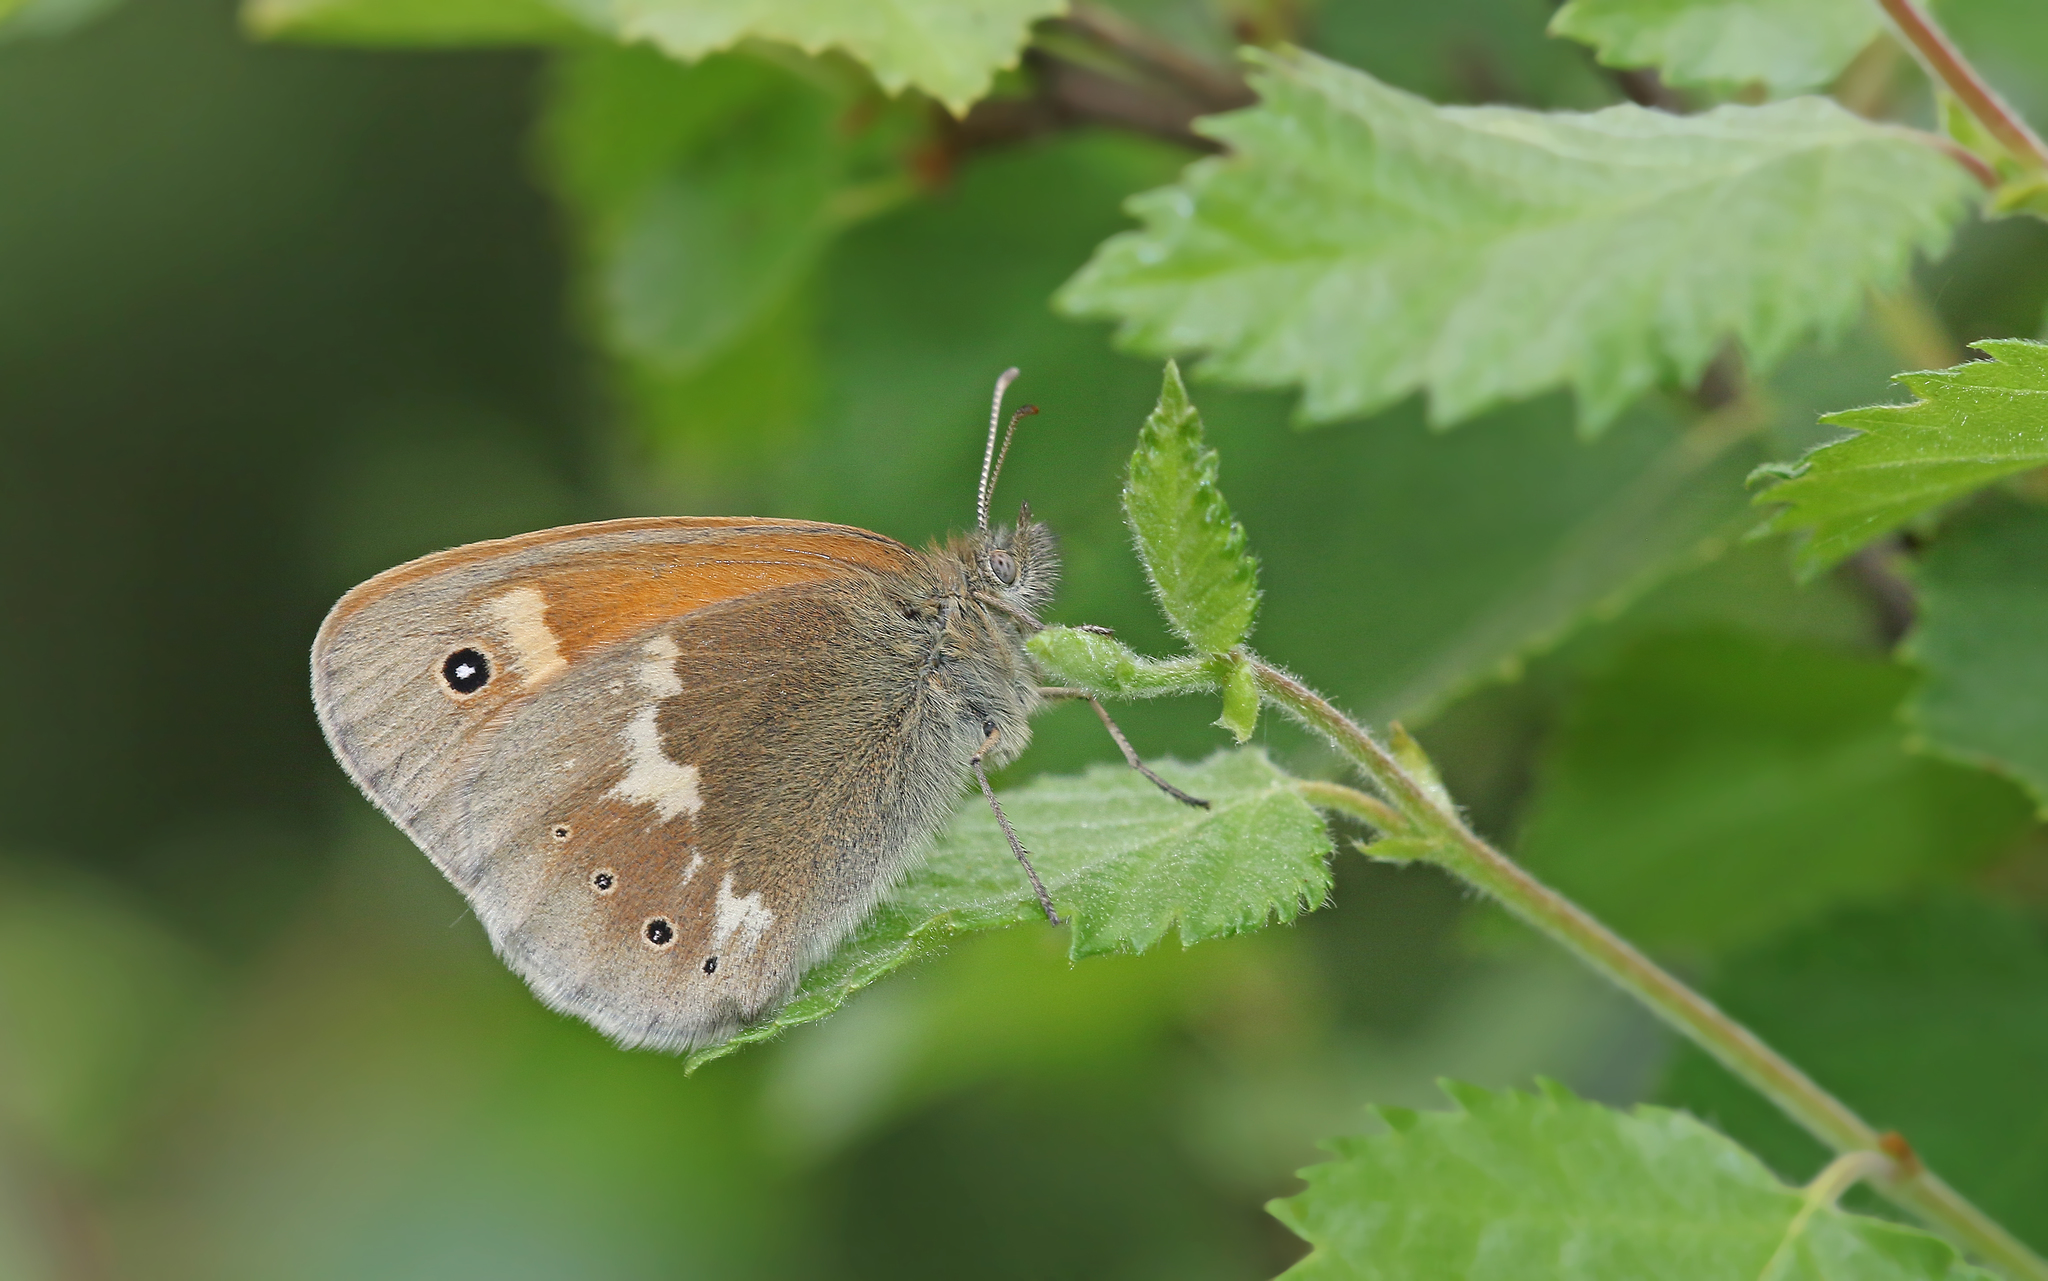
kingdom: Animalia
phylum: Arthropoda
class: Insecta
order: Lepidoptera
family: Nymphalidae
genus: Coenonympha
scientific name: Coenonympha tullia
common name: Large heath
